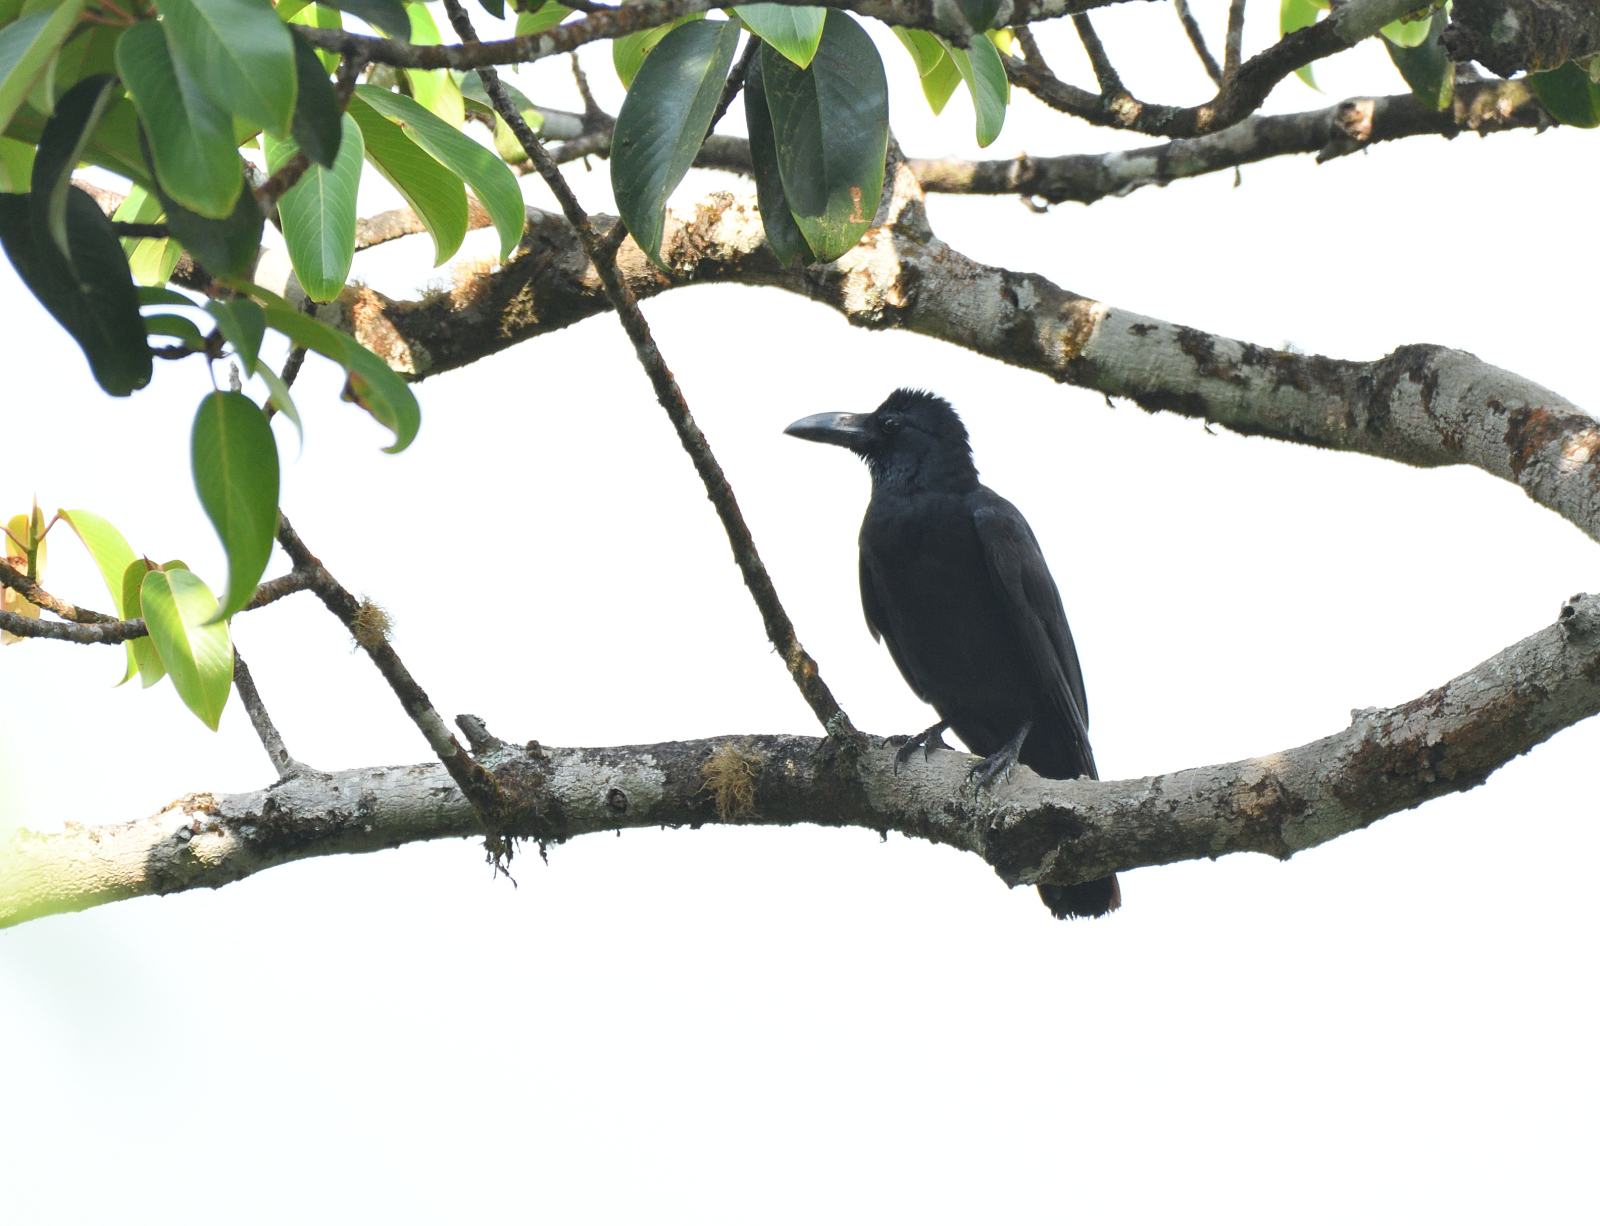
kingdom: Animalia
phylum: Chordata
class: Aves
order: Passeriformes
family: Corvidae
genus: Corvus
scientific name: Corvus macrorhynchos
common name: Large-billed crow
